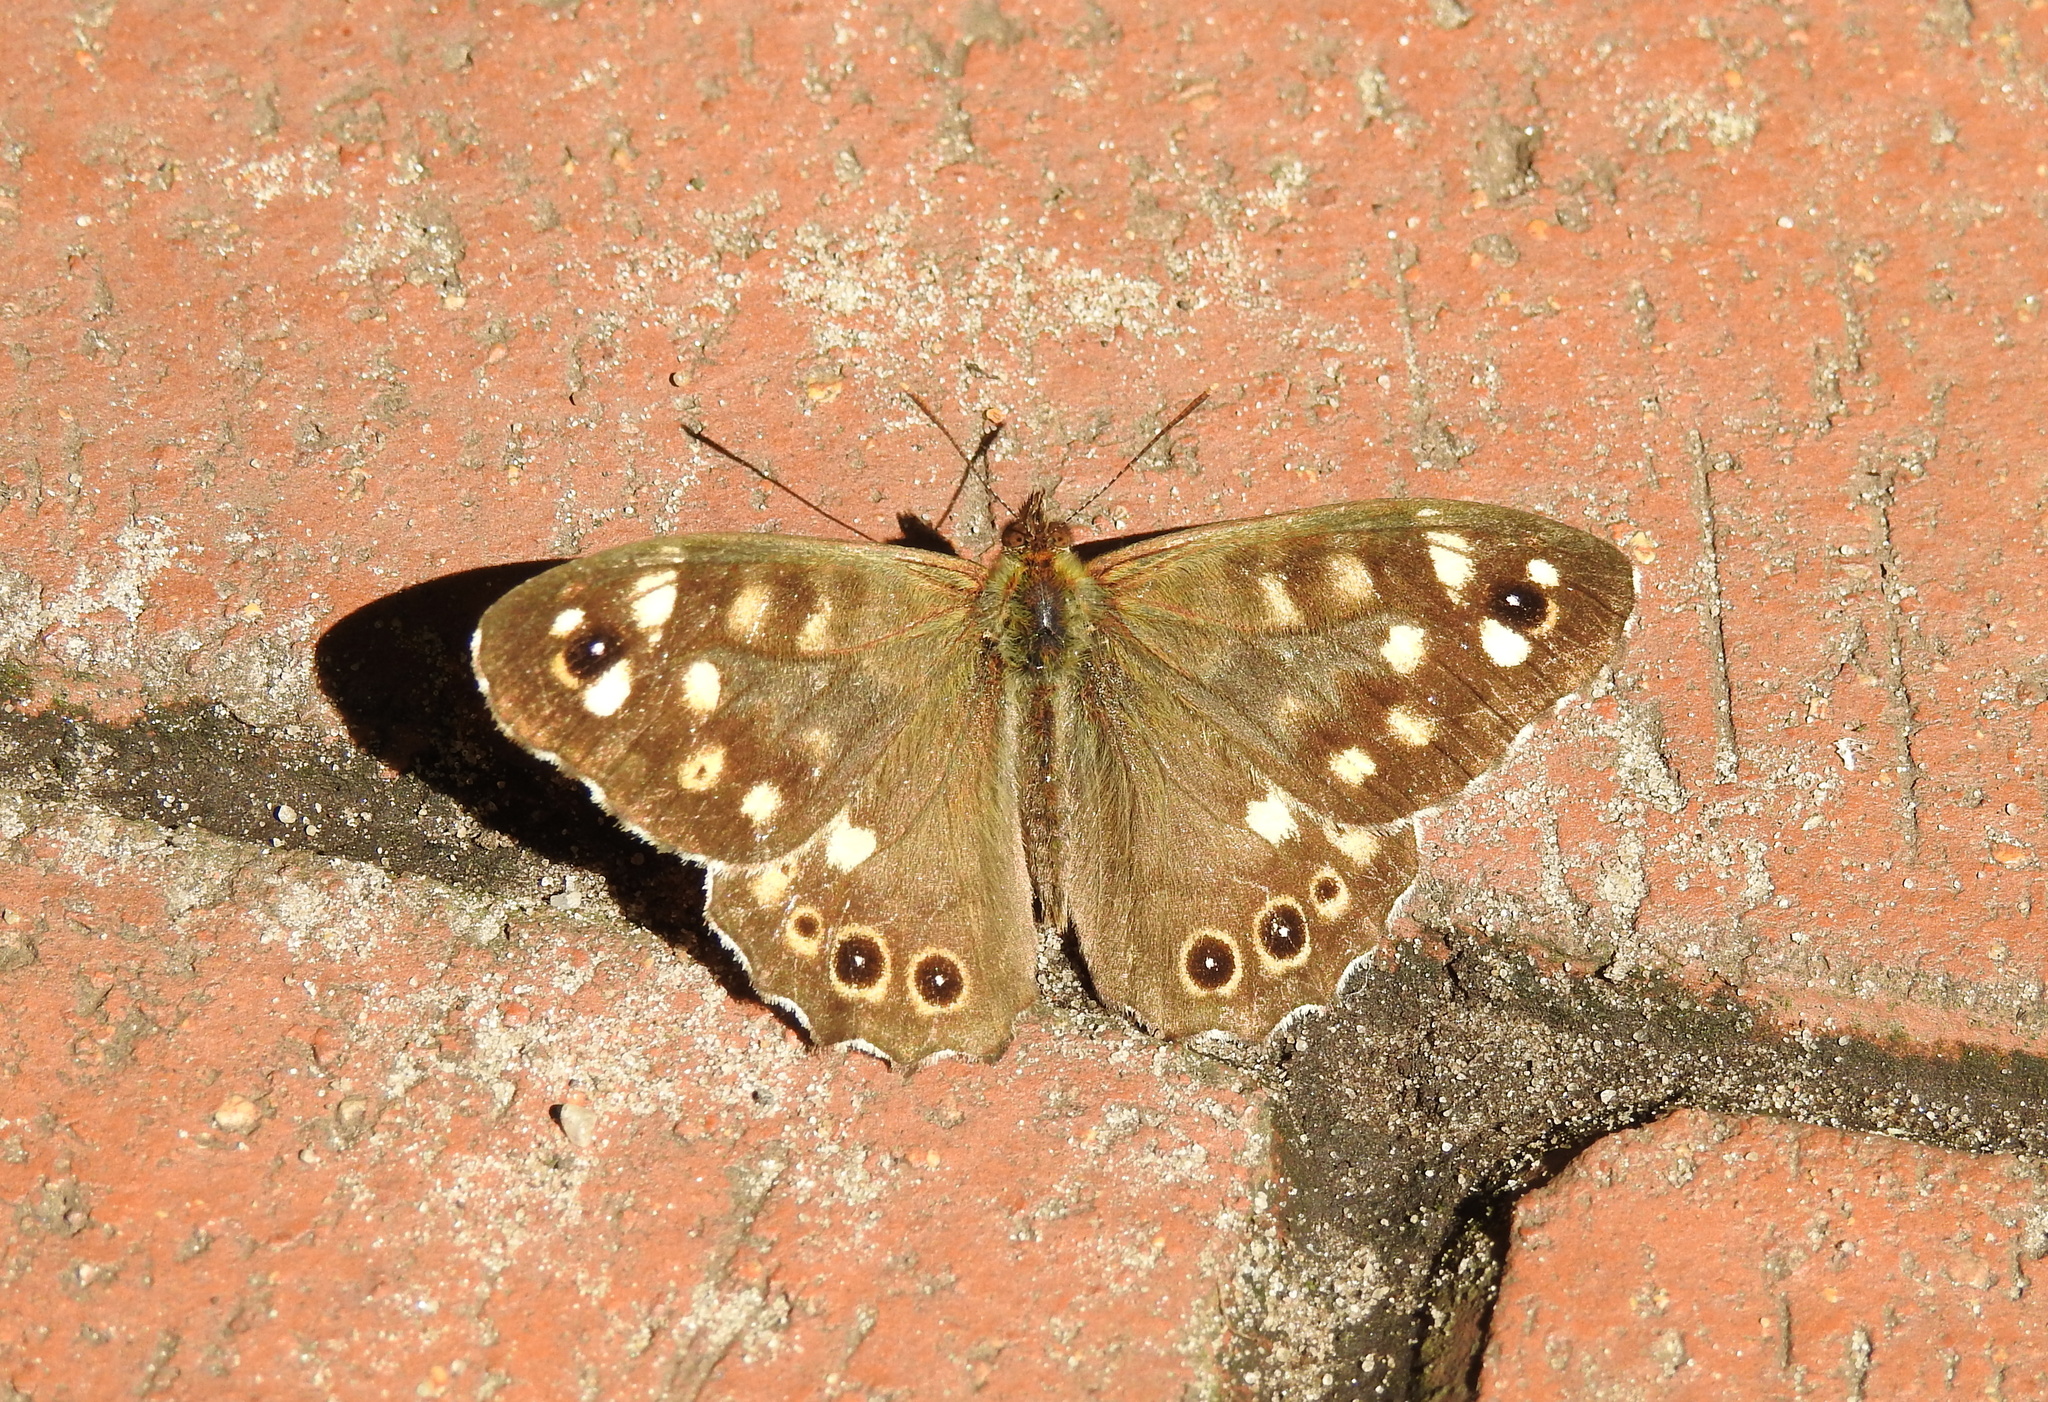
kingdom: Animalia
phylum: Arthropoda
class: Insecta
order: Lepidoptera
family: Nymphalidae
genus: Pararge
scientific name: Pararge aegeria
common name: Speckled wood
